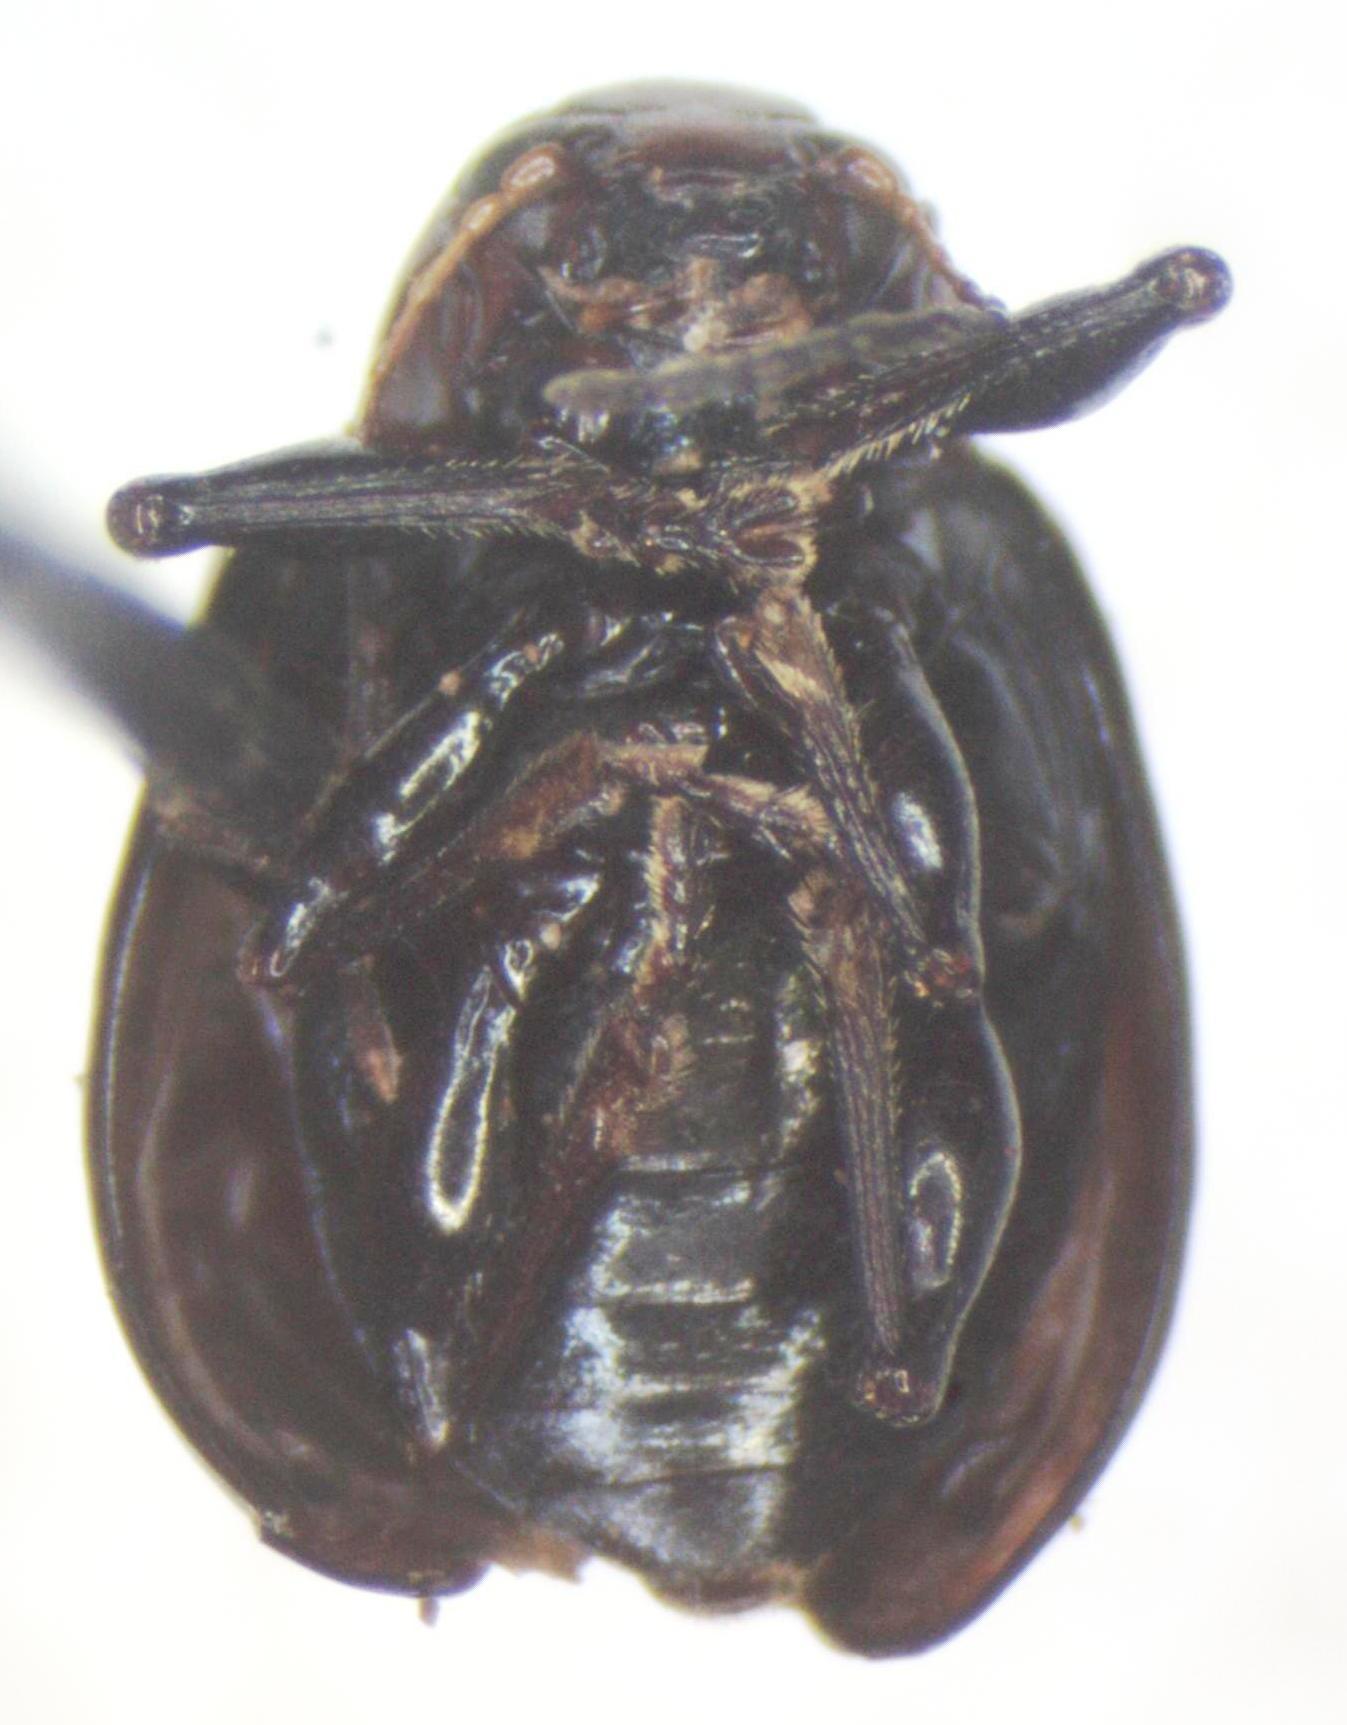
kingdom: Animalia
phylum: Arthropoda
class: Insecta
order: Coleoptera
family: Chrysomelidae
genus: Typophorus
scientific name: Typophorus
